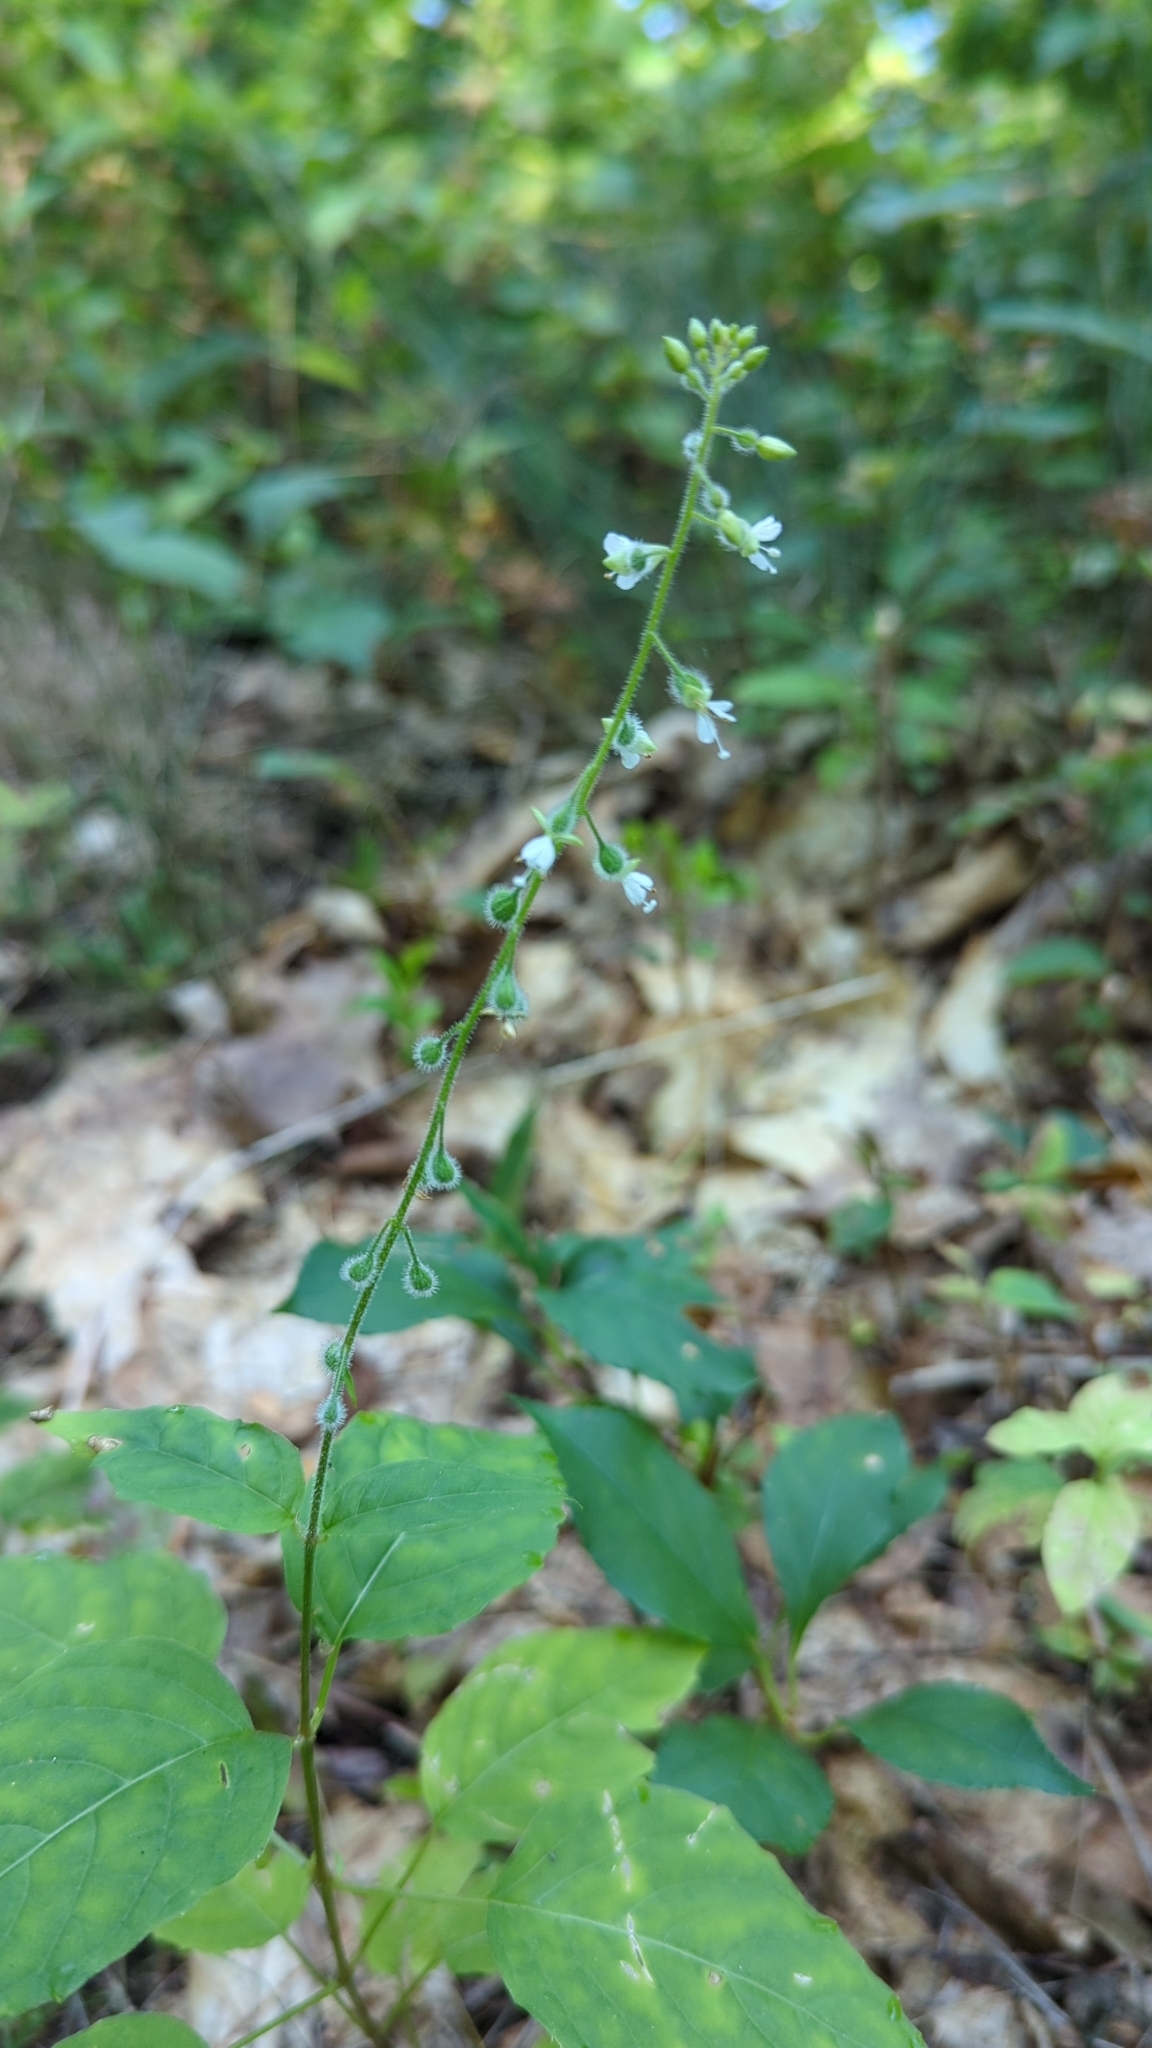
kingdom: Plantae
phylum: Tracheophyta
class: Magnoliopsida
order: Myrtales
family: Onagraceae
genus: Circaea
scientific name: Circaea canadensis
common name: Broad-leaved enchanter's nightshade
